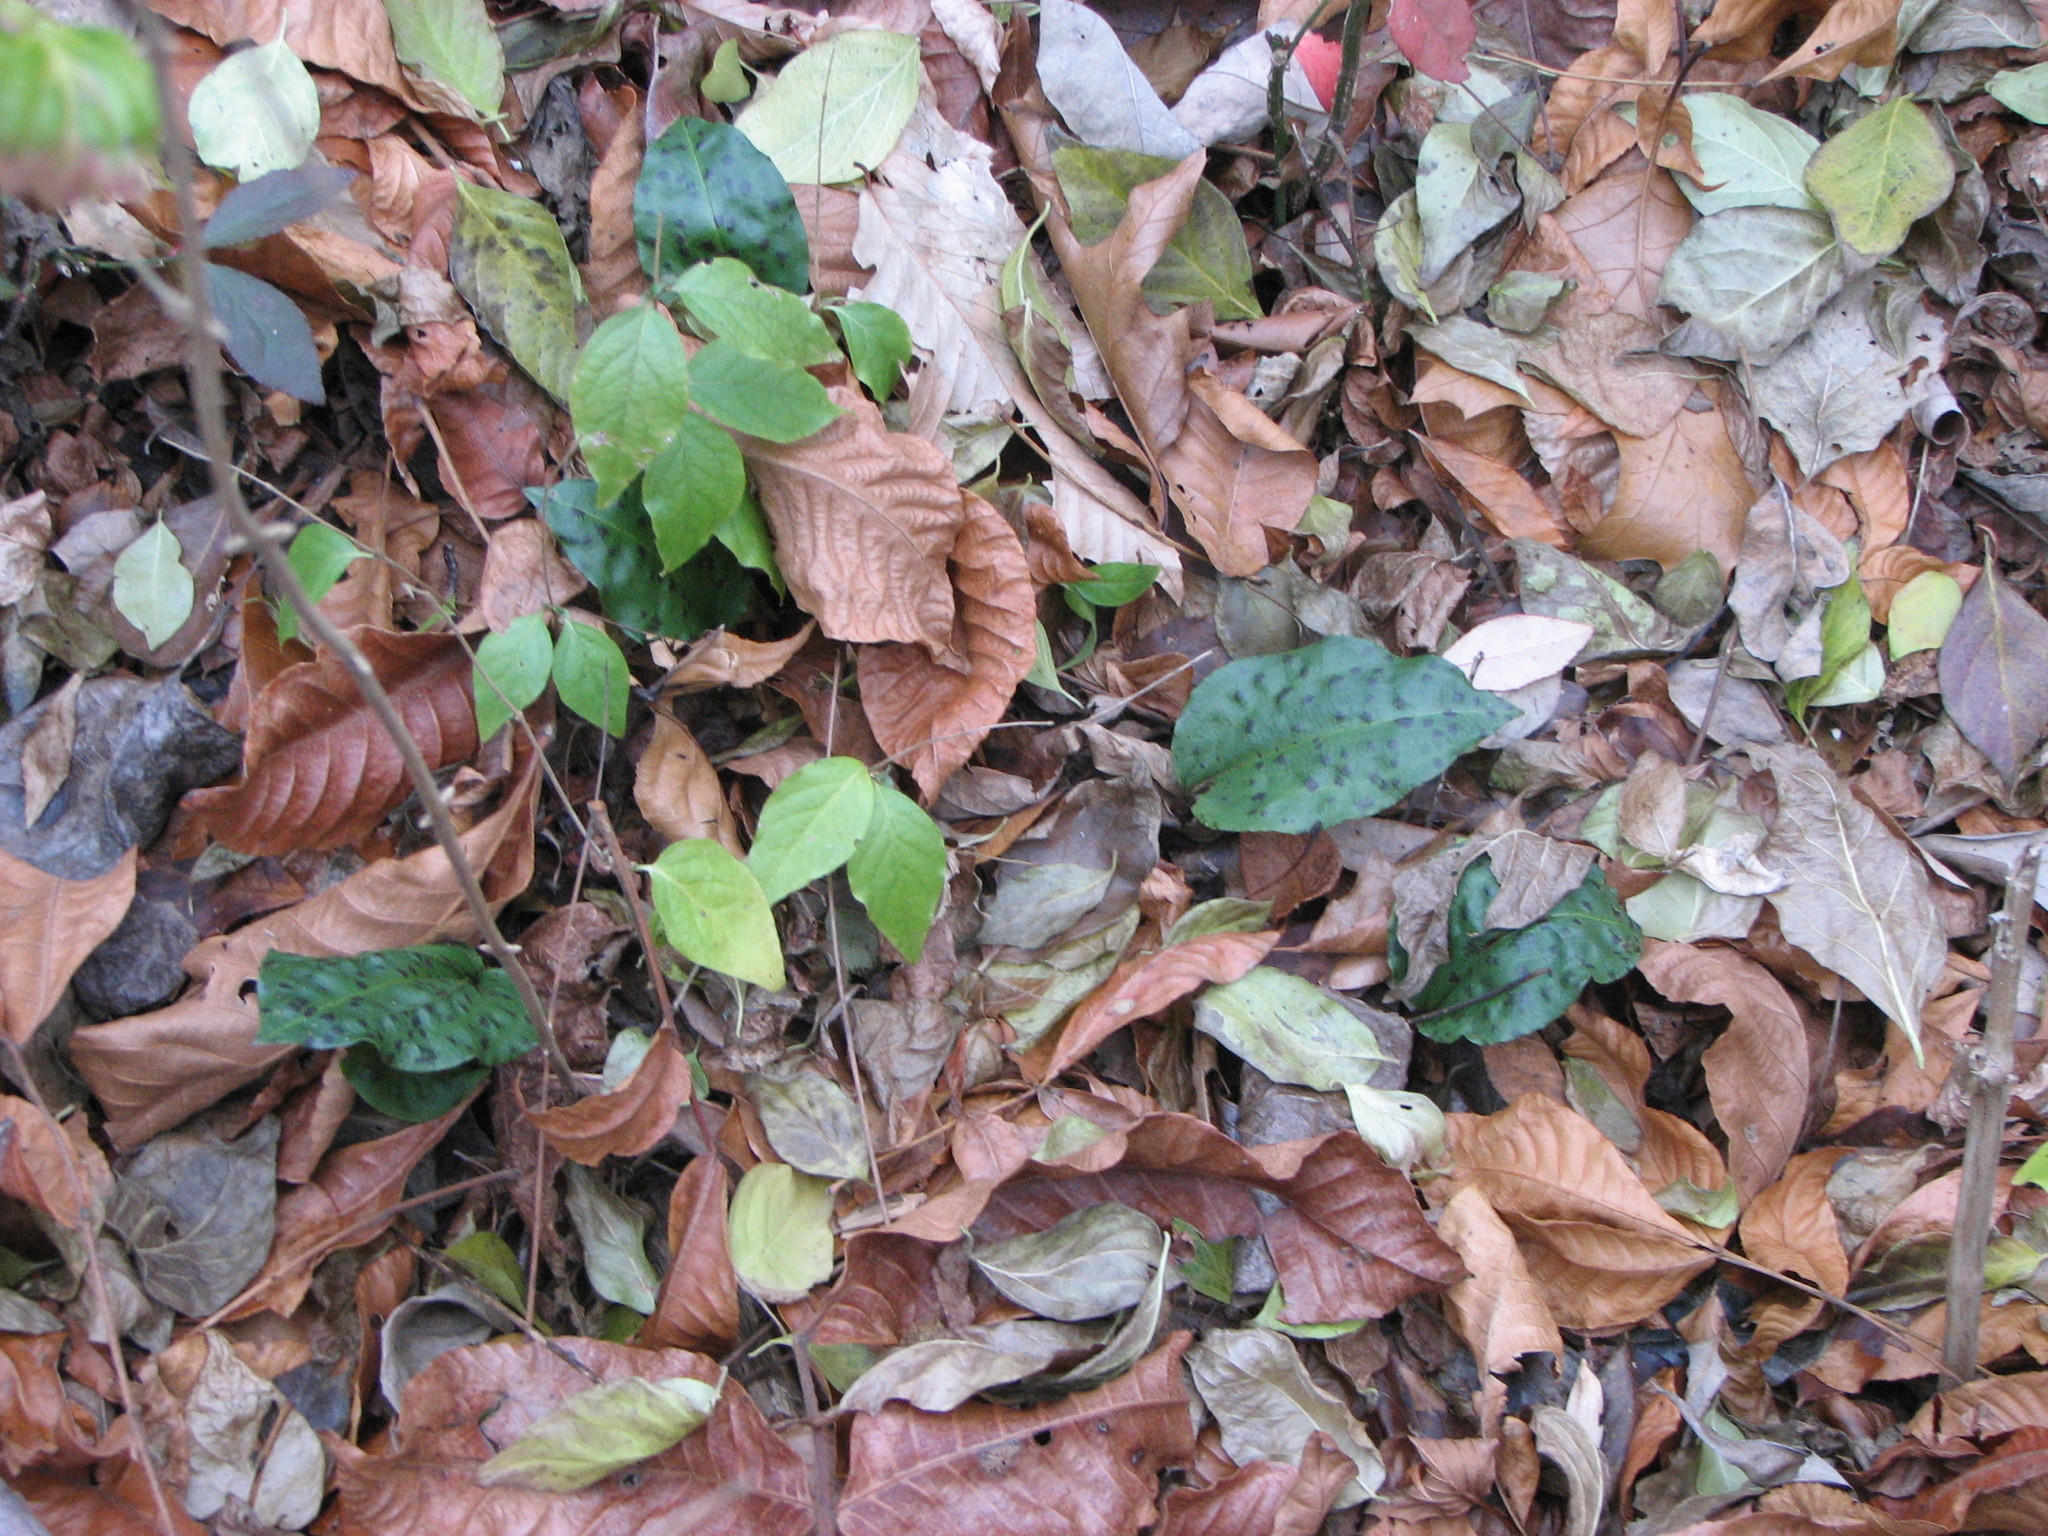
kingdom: Plantae
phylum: Tracheophyta
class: Liliopsida
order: Asparagales
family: Orchidaceae
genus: Tipularia
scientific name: Tipularia discolor
